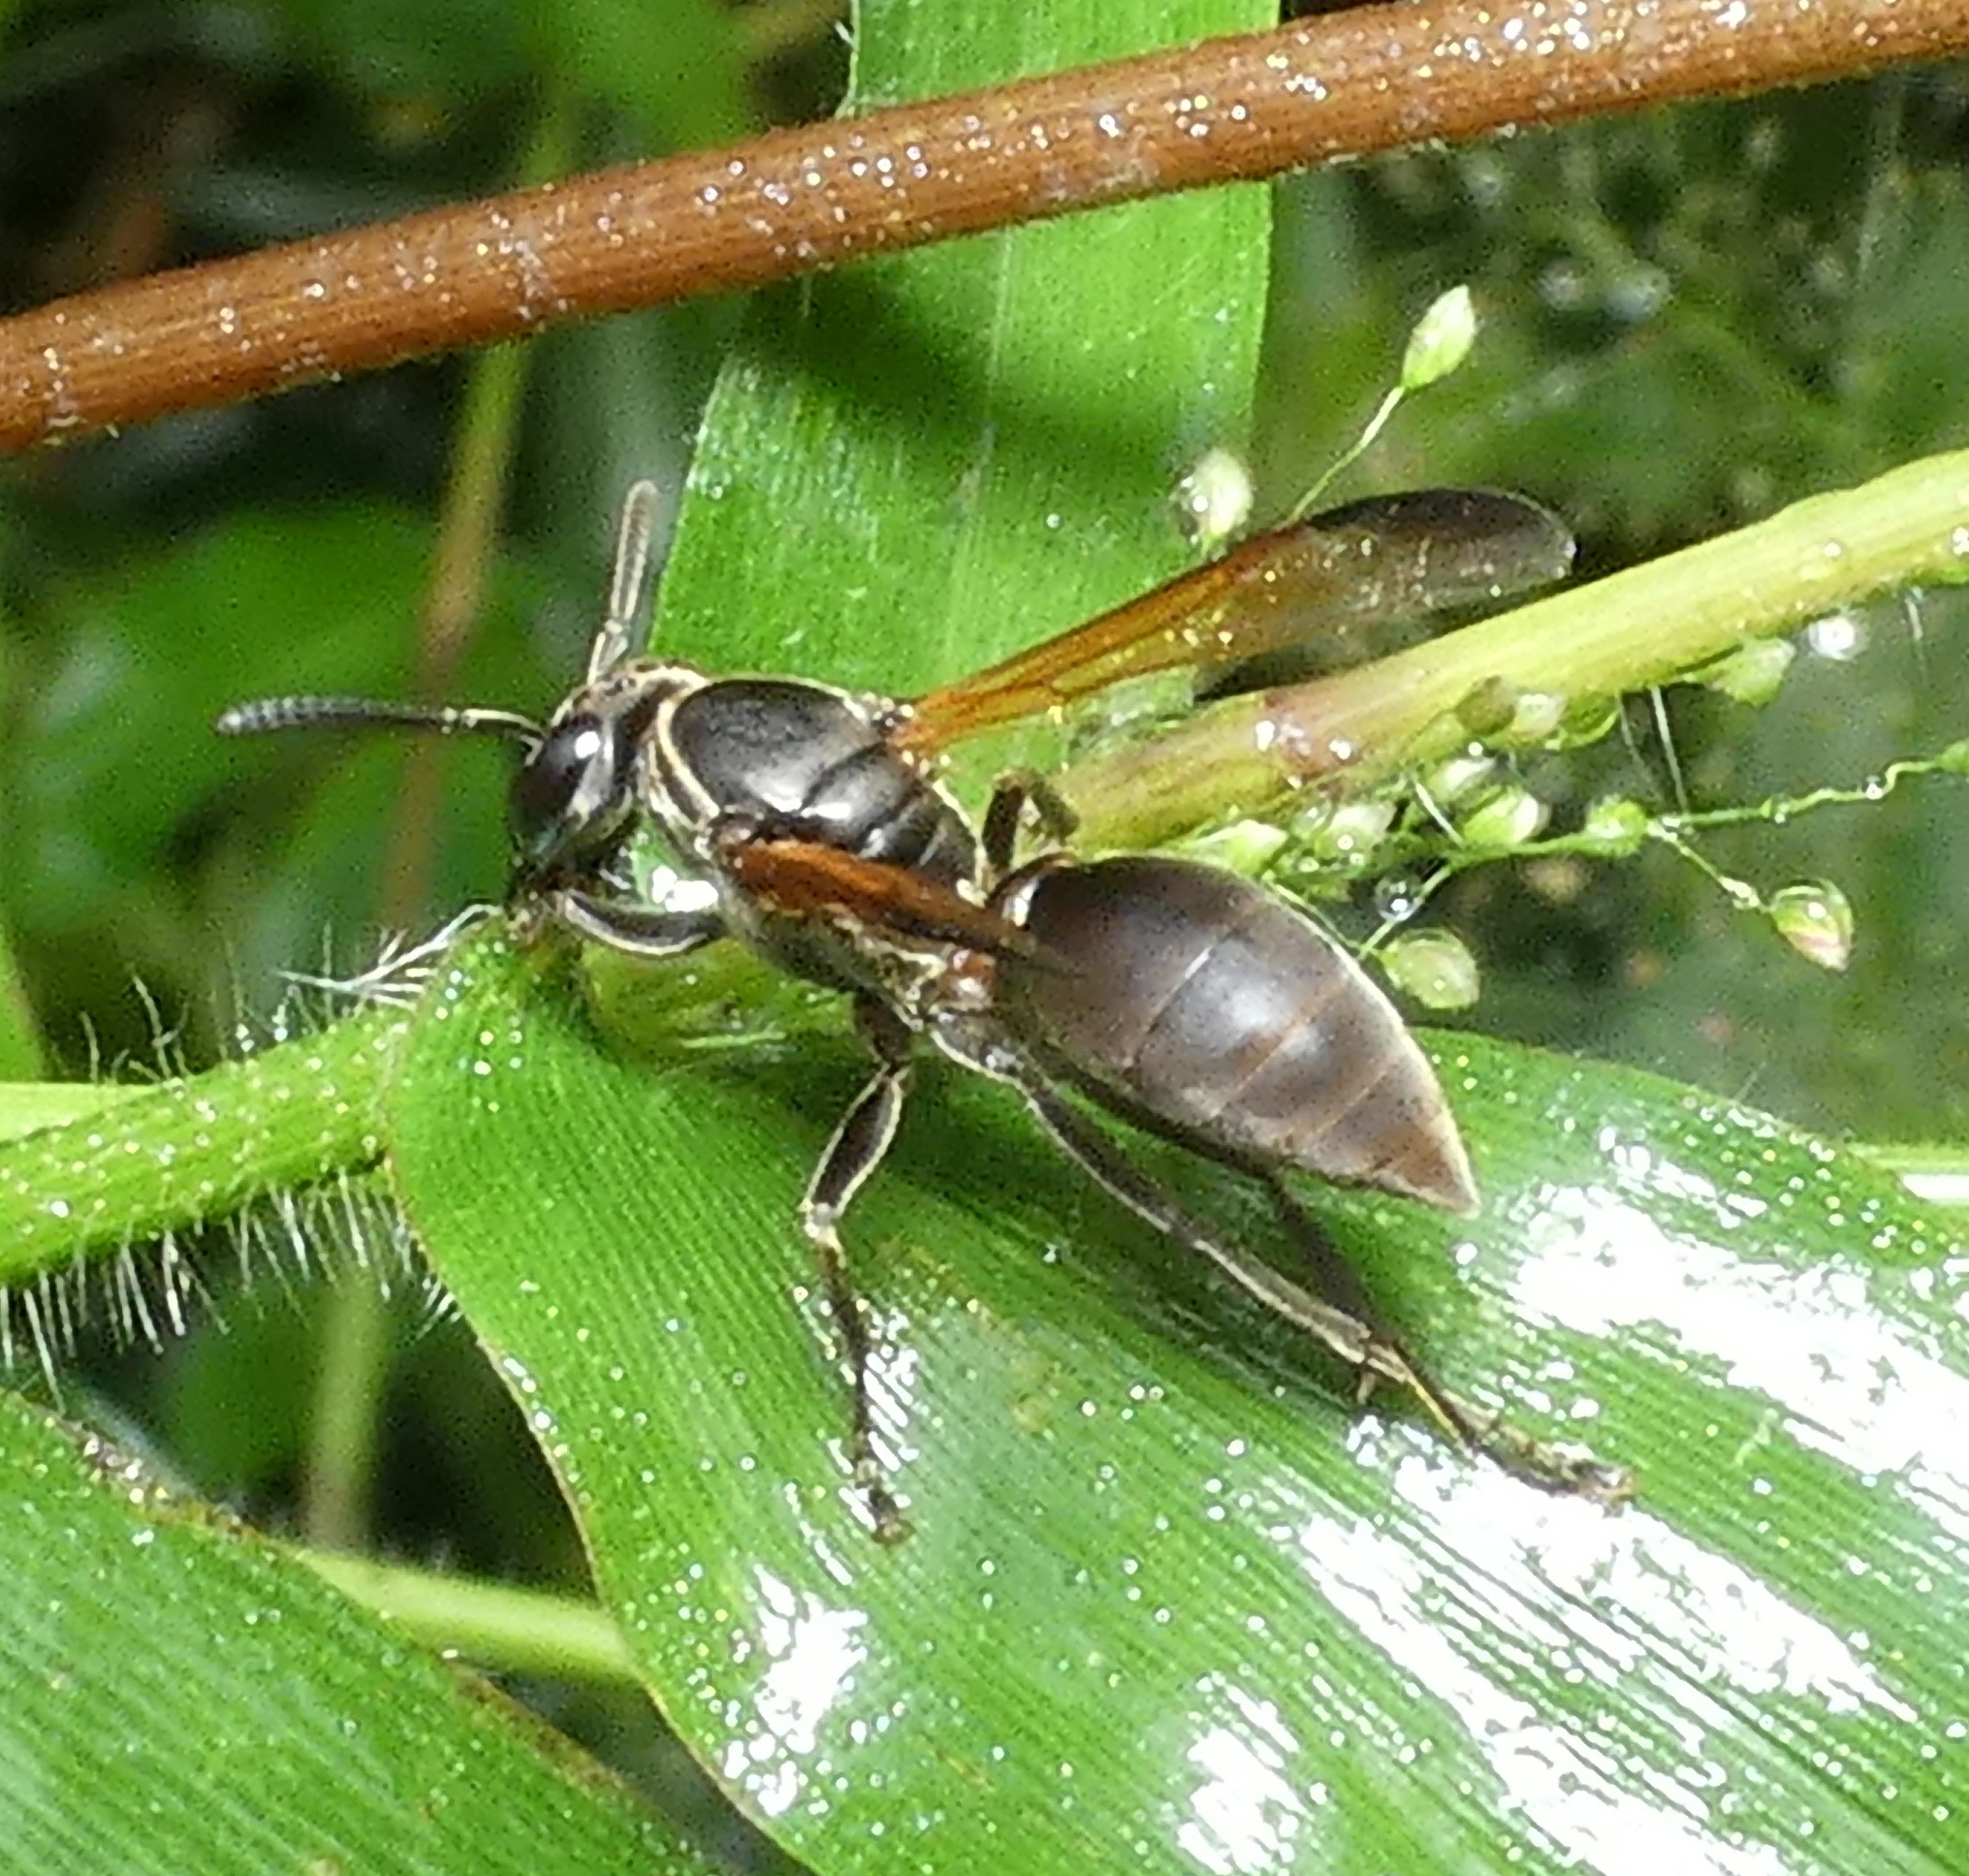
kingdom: Animalia
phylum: Arthropoda
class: Insecta
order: Hymenoptera
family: Eumenidae
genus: Polybia
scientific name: Polybia rejecta
